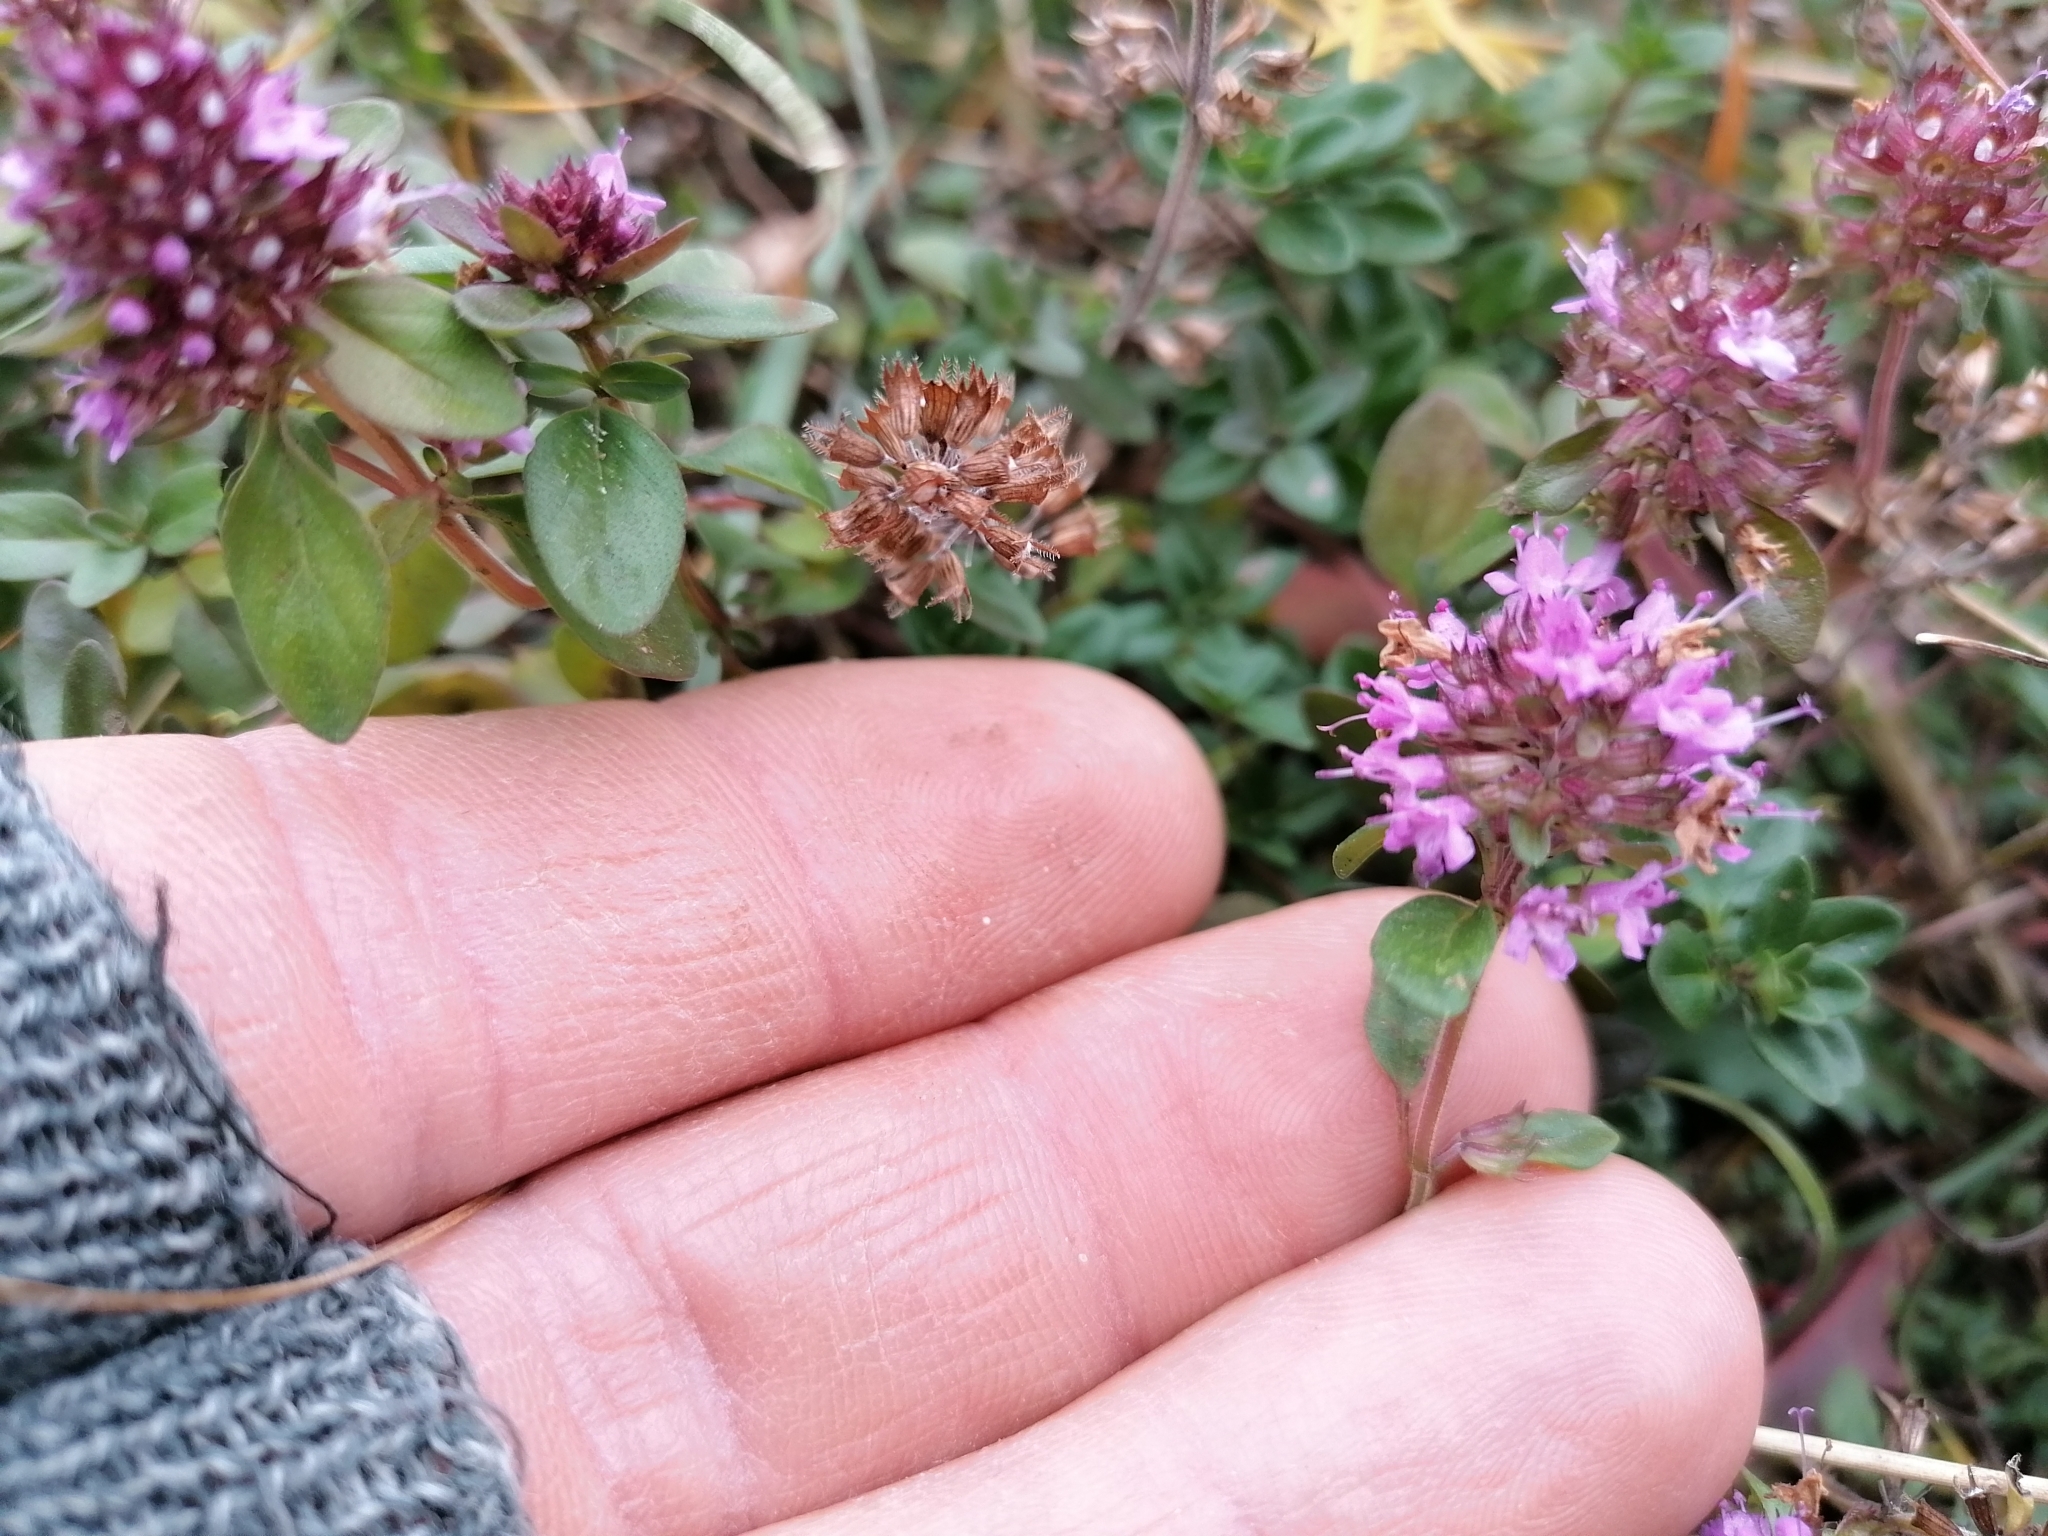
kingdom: Plantae
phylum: Tracheophyta
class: Magnoliopsida
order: Lamiales
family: Lamiaceae
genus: Thymus
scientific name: Thymus pulegioides
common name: Large thyme
